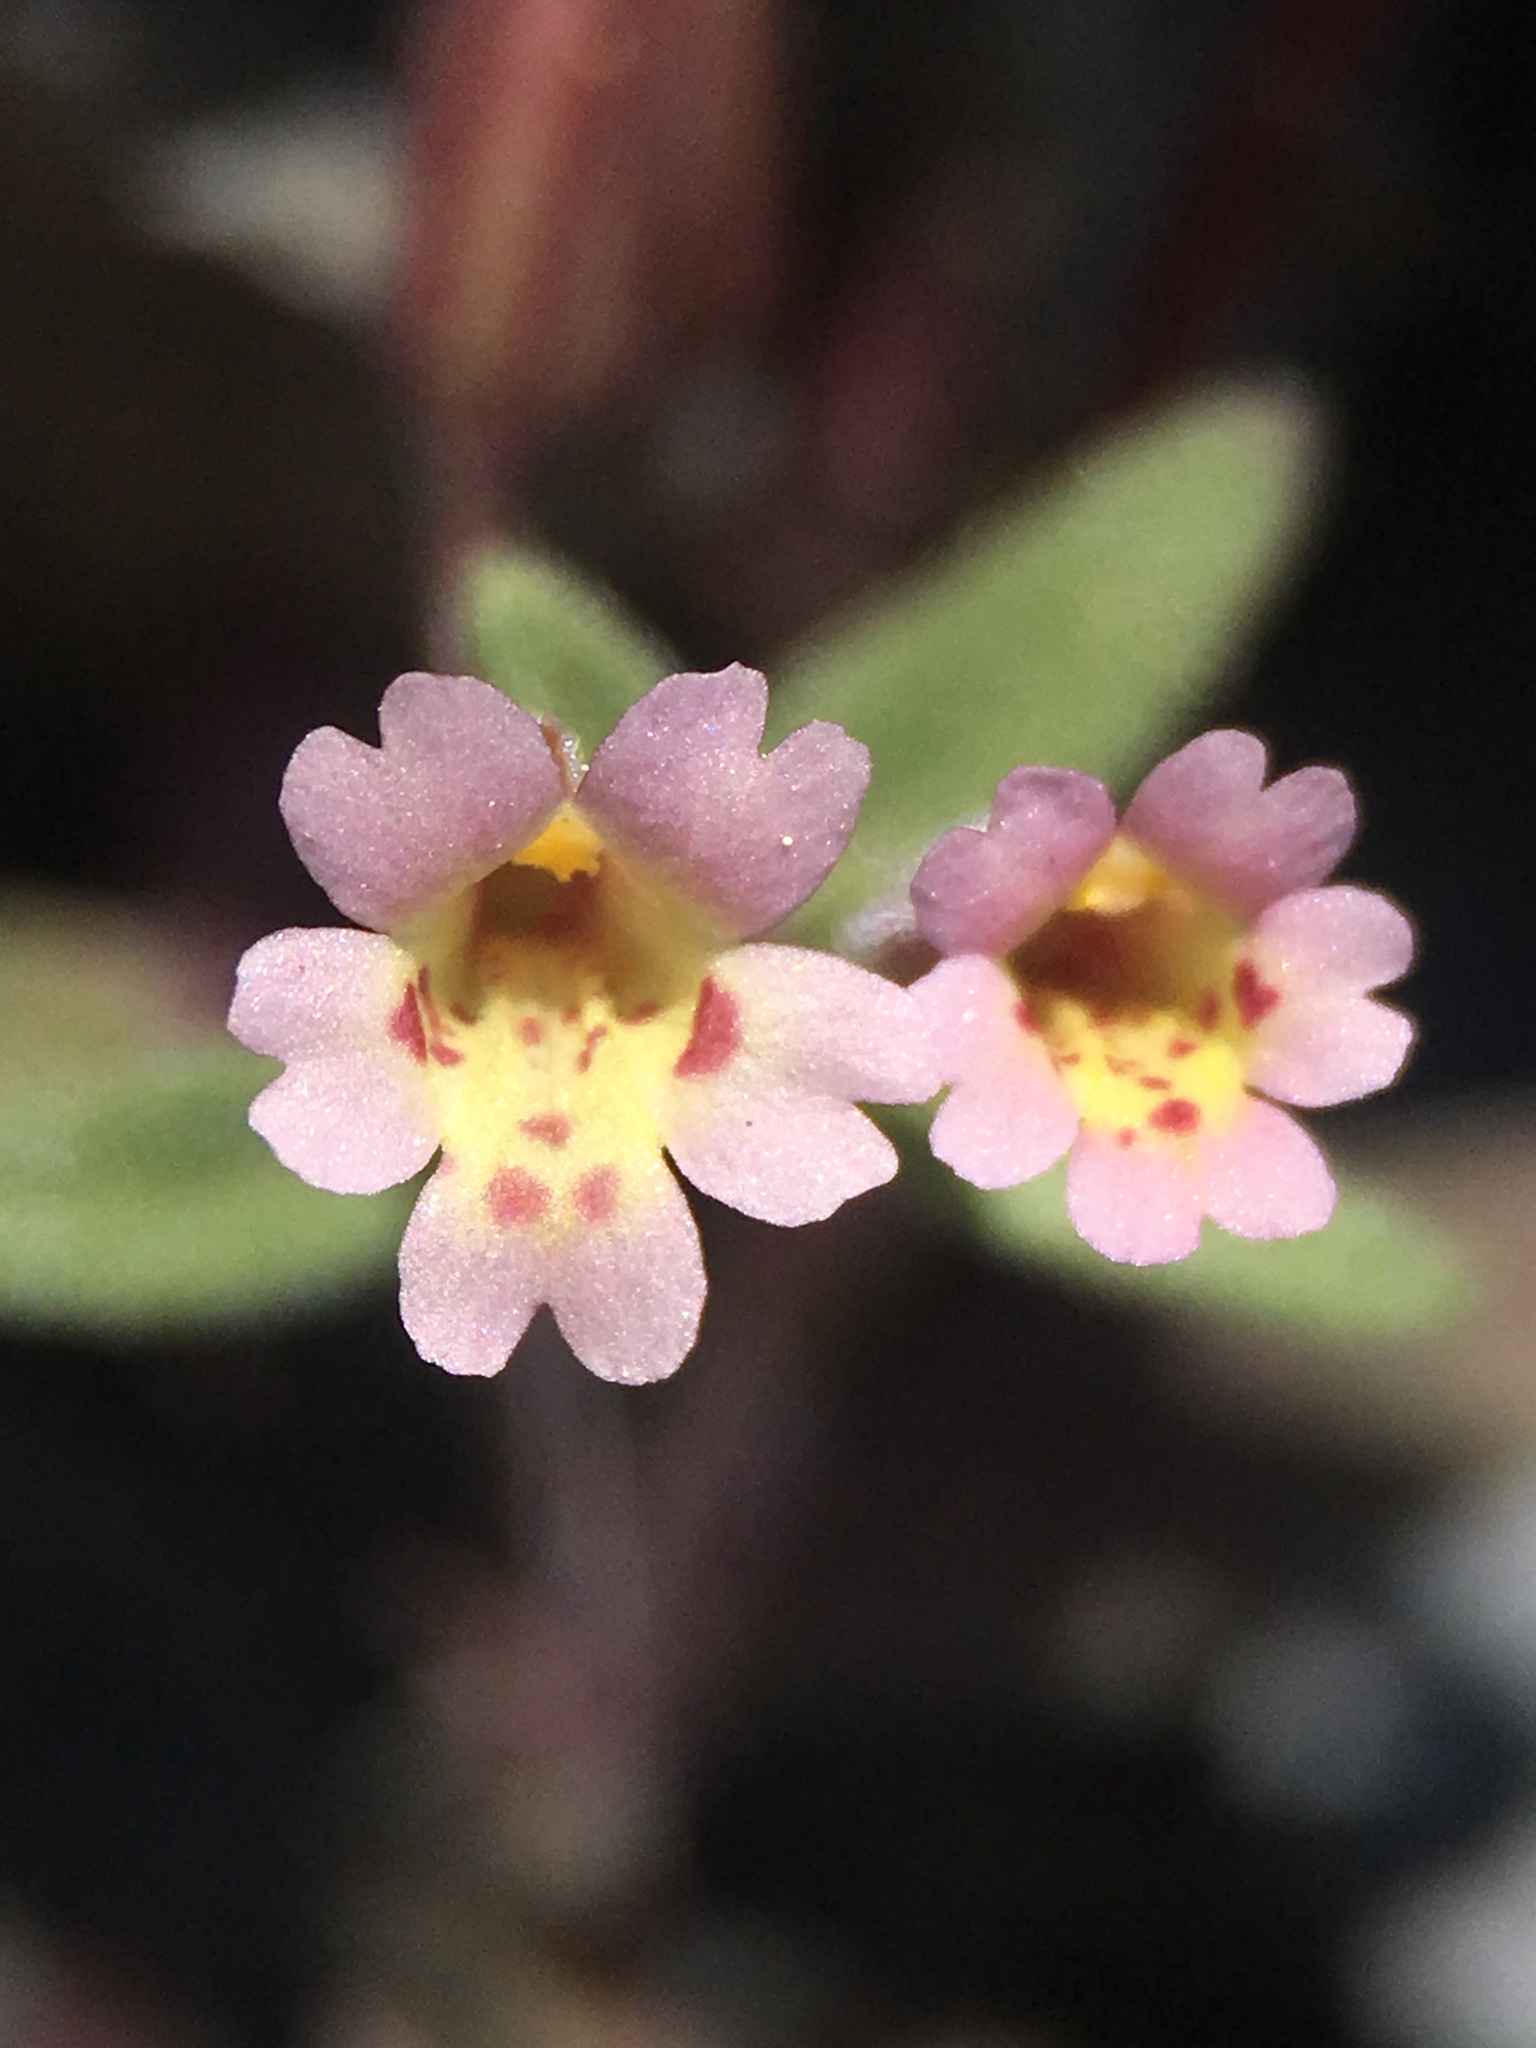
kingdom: Plantae
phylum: Tracheophyta
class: Magnoliopsida
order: Lamiales
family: Phrymaceae
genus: Erythranthe
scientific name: Erythranthe rubella
